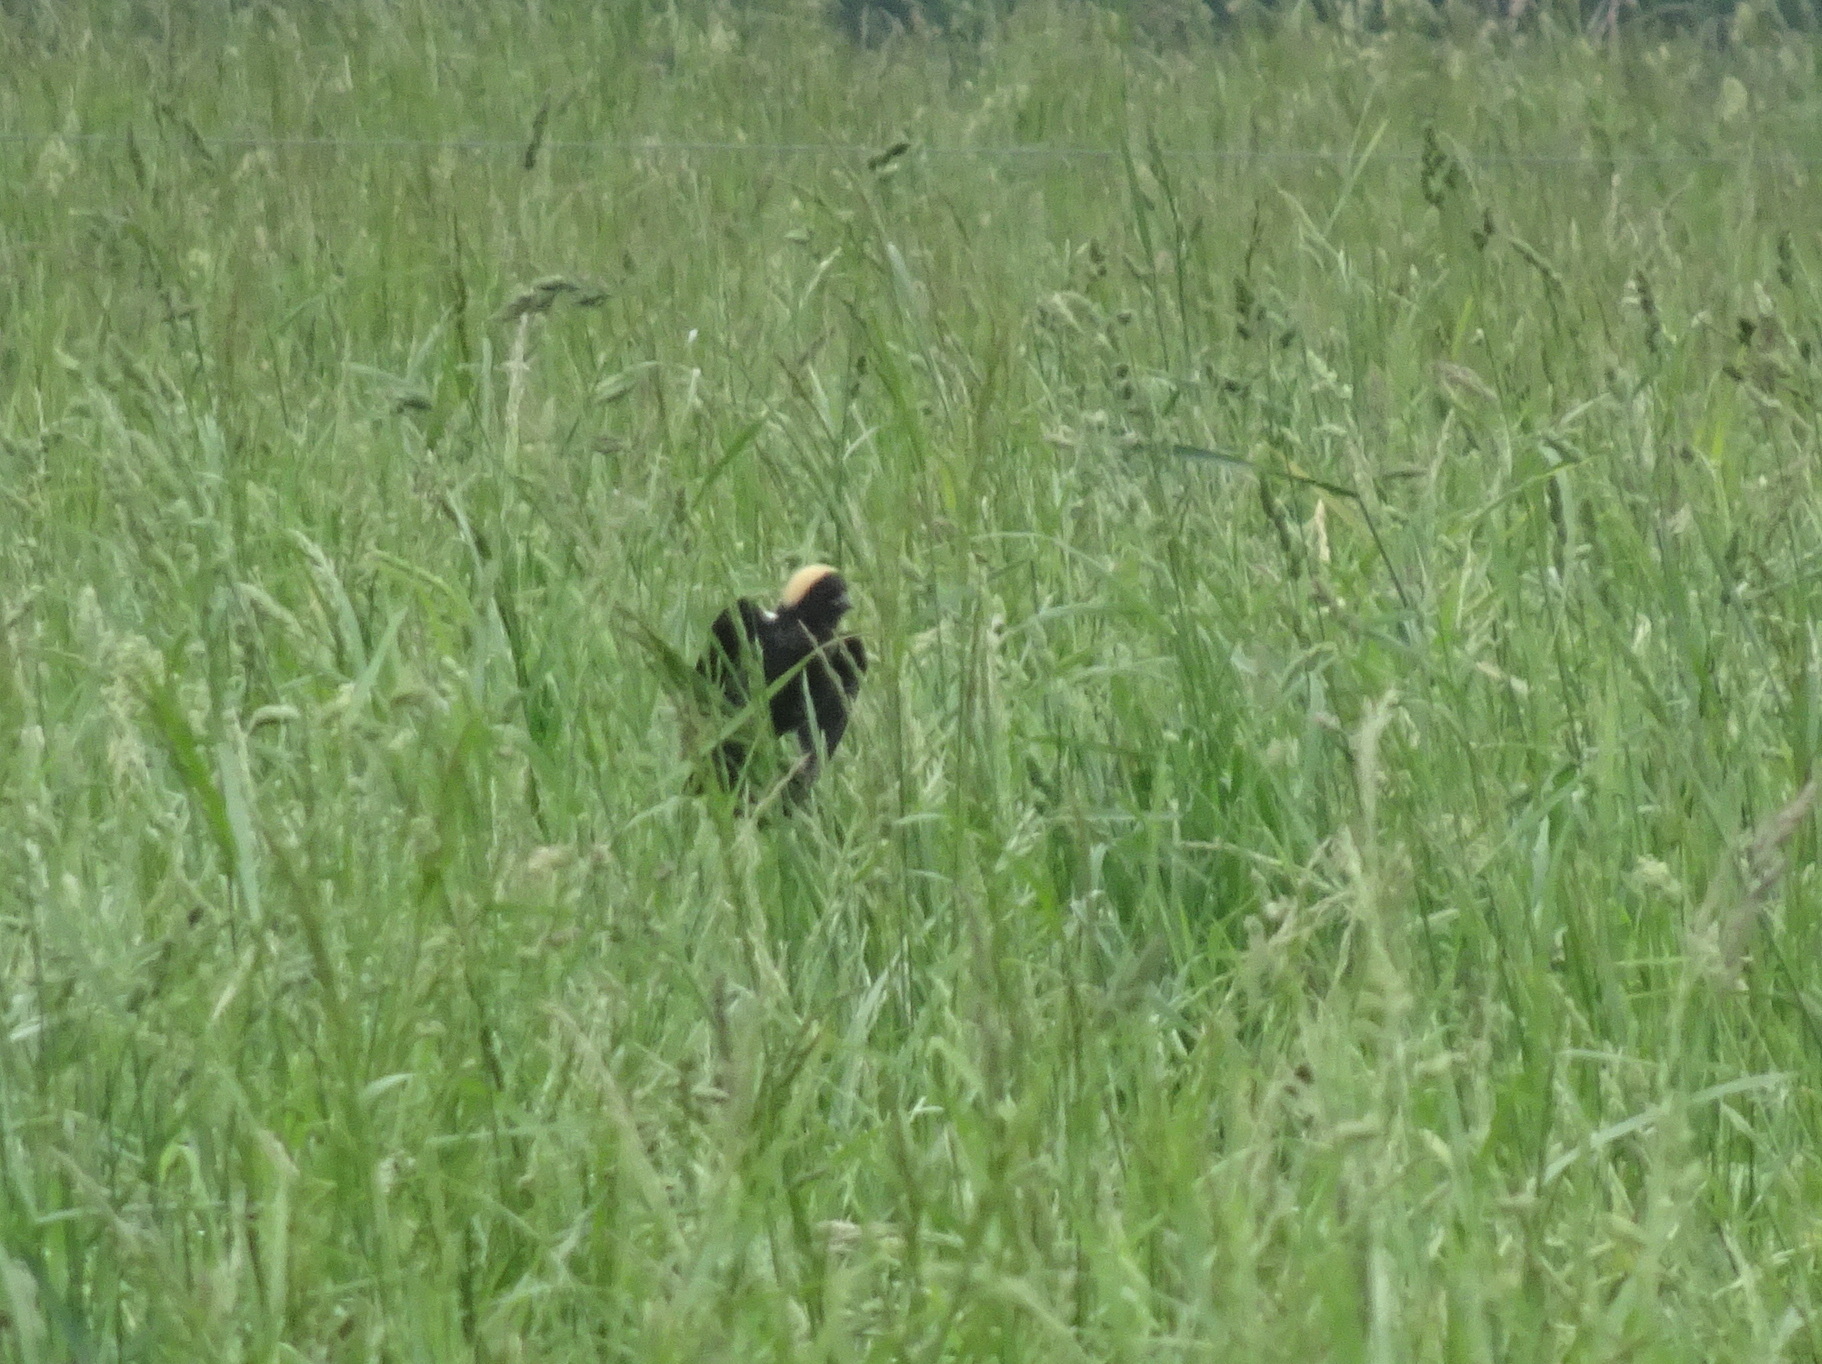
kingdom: Animalia
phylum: Chordata
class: Aves
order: Passeriformes
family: Icteridae
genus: Dolichonyx
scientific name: Dolichonyx oryzivorus
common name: Bobolink
